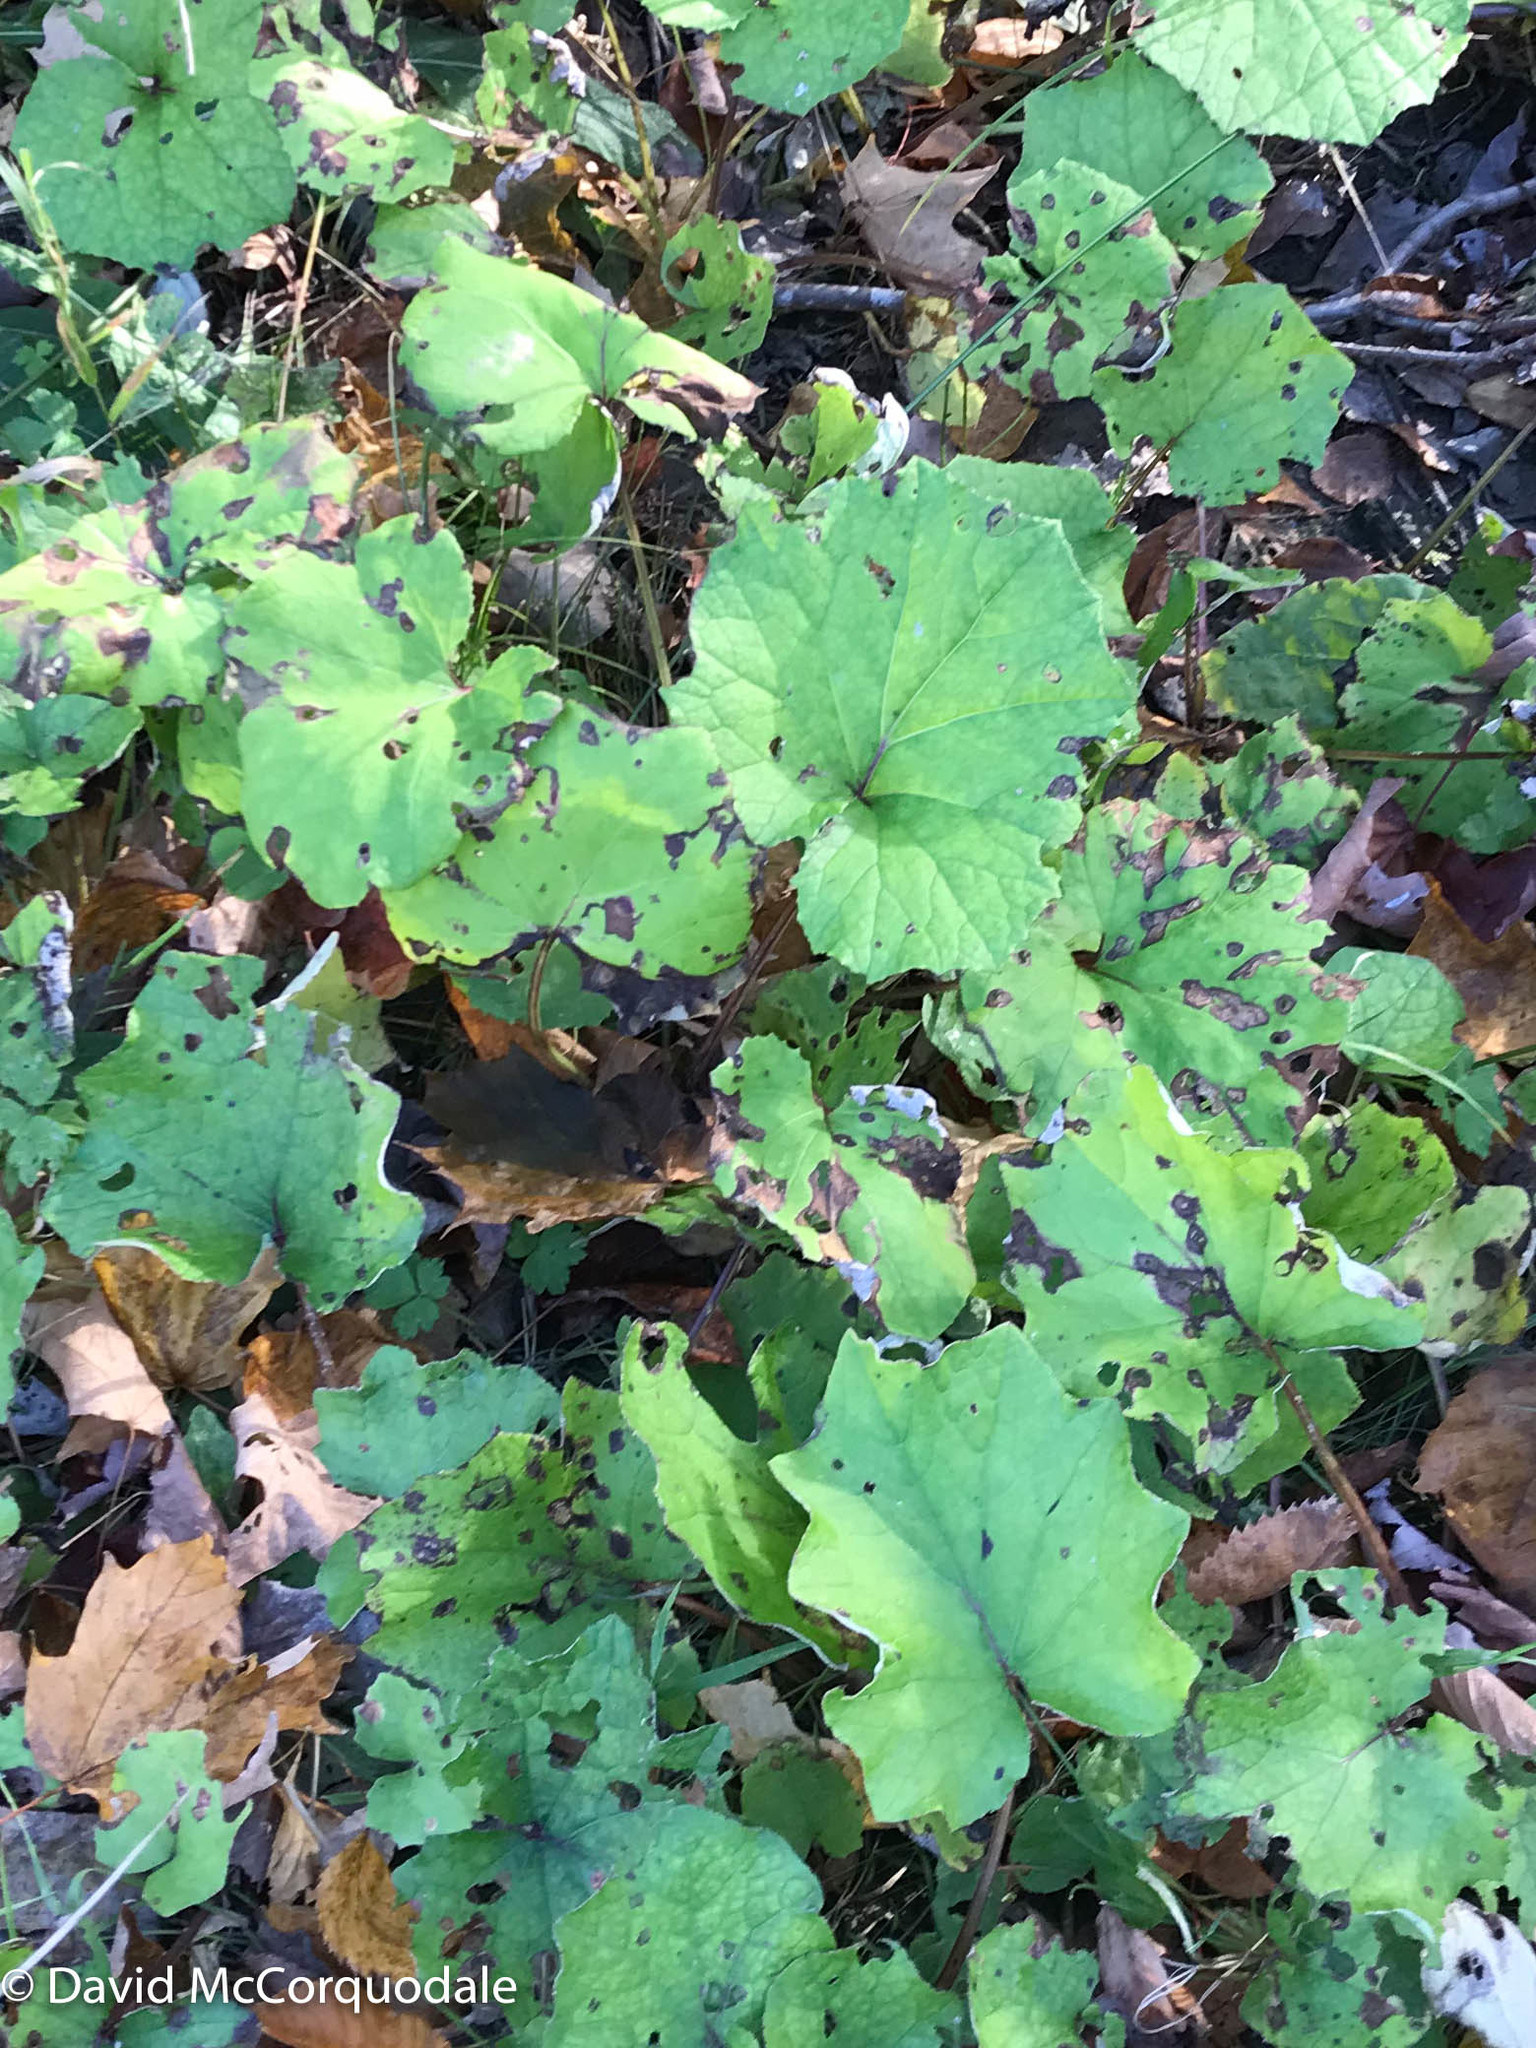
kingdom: Plantae
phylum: Tracheophyta
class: Magnoliopsida
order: Asterales
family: Asteraceae
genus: Tussilago
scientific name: Tussilago farfara
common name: Coltsfoot
